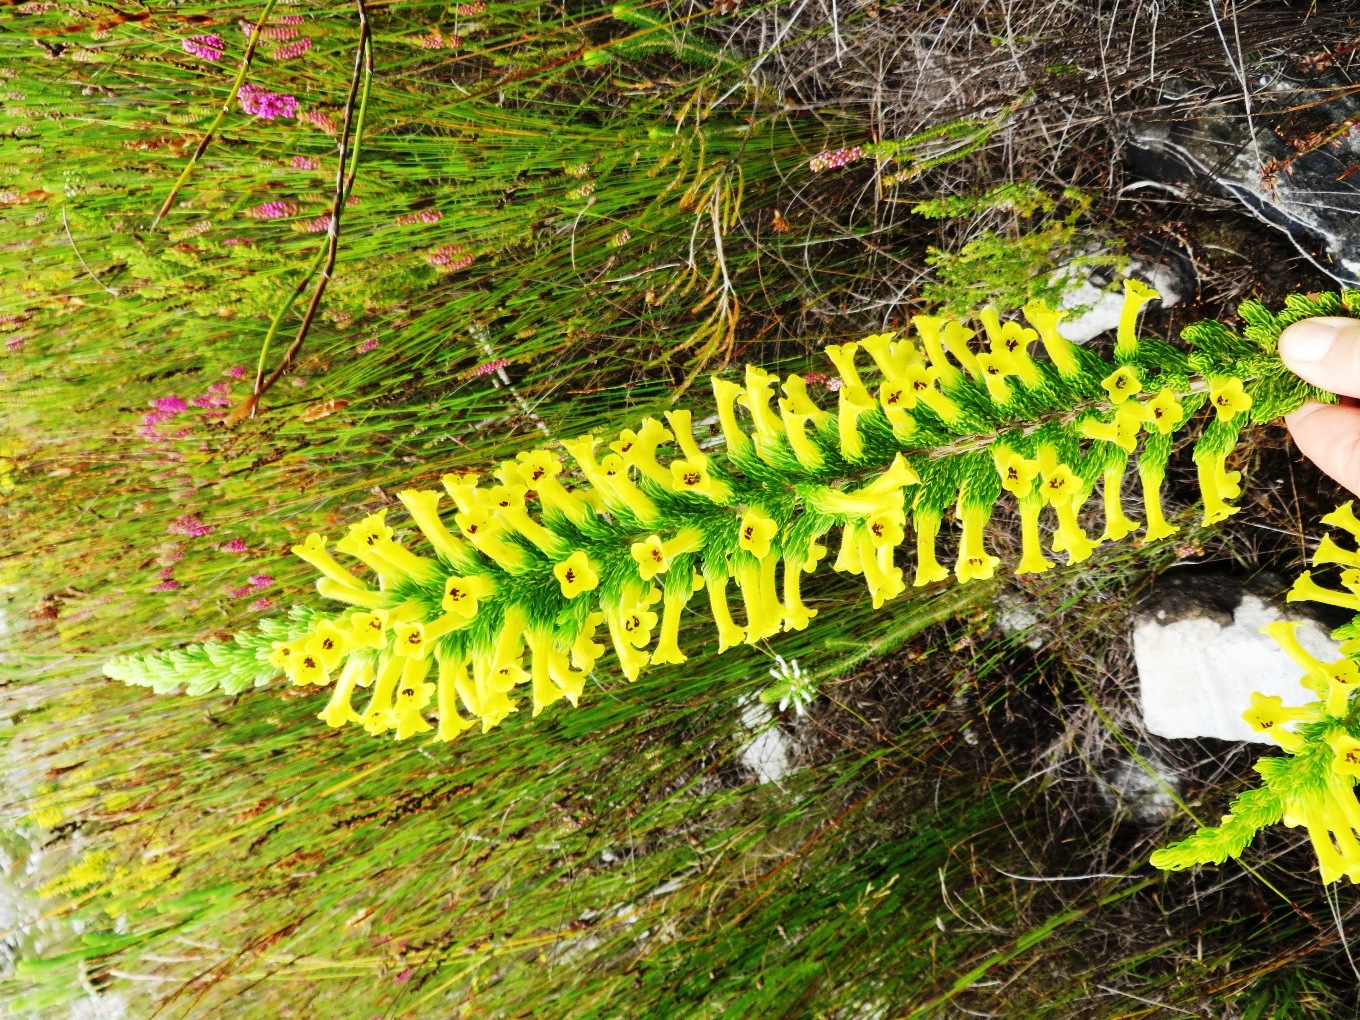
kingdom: Plantae
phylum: Tracheophyta
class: Magnoliopsida
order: Ericales
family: Ericaceae
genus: Erica
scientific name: Erica macowanii
